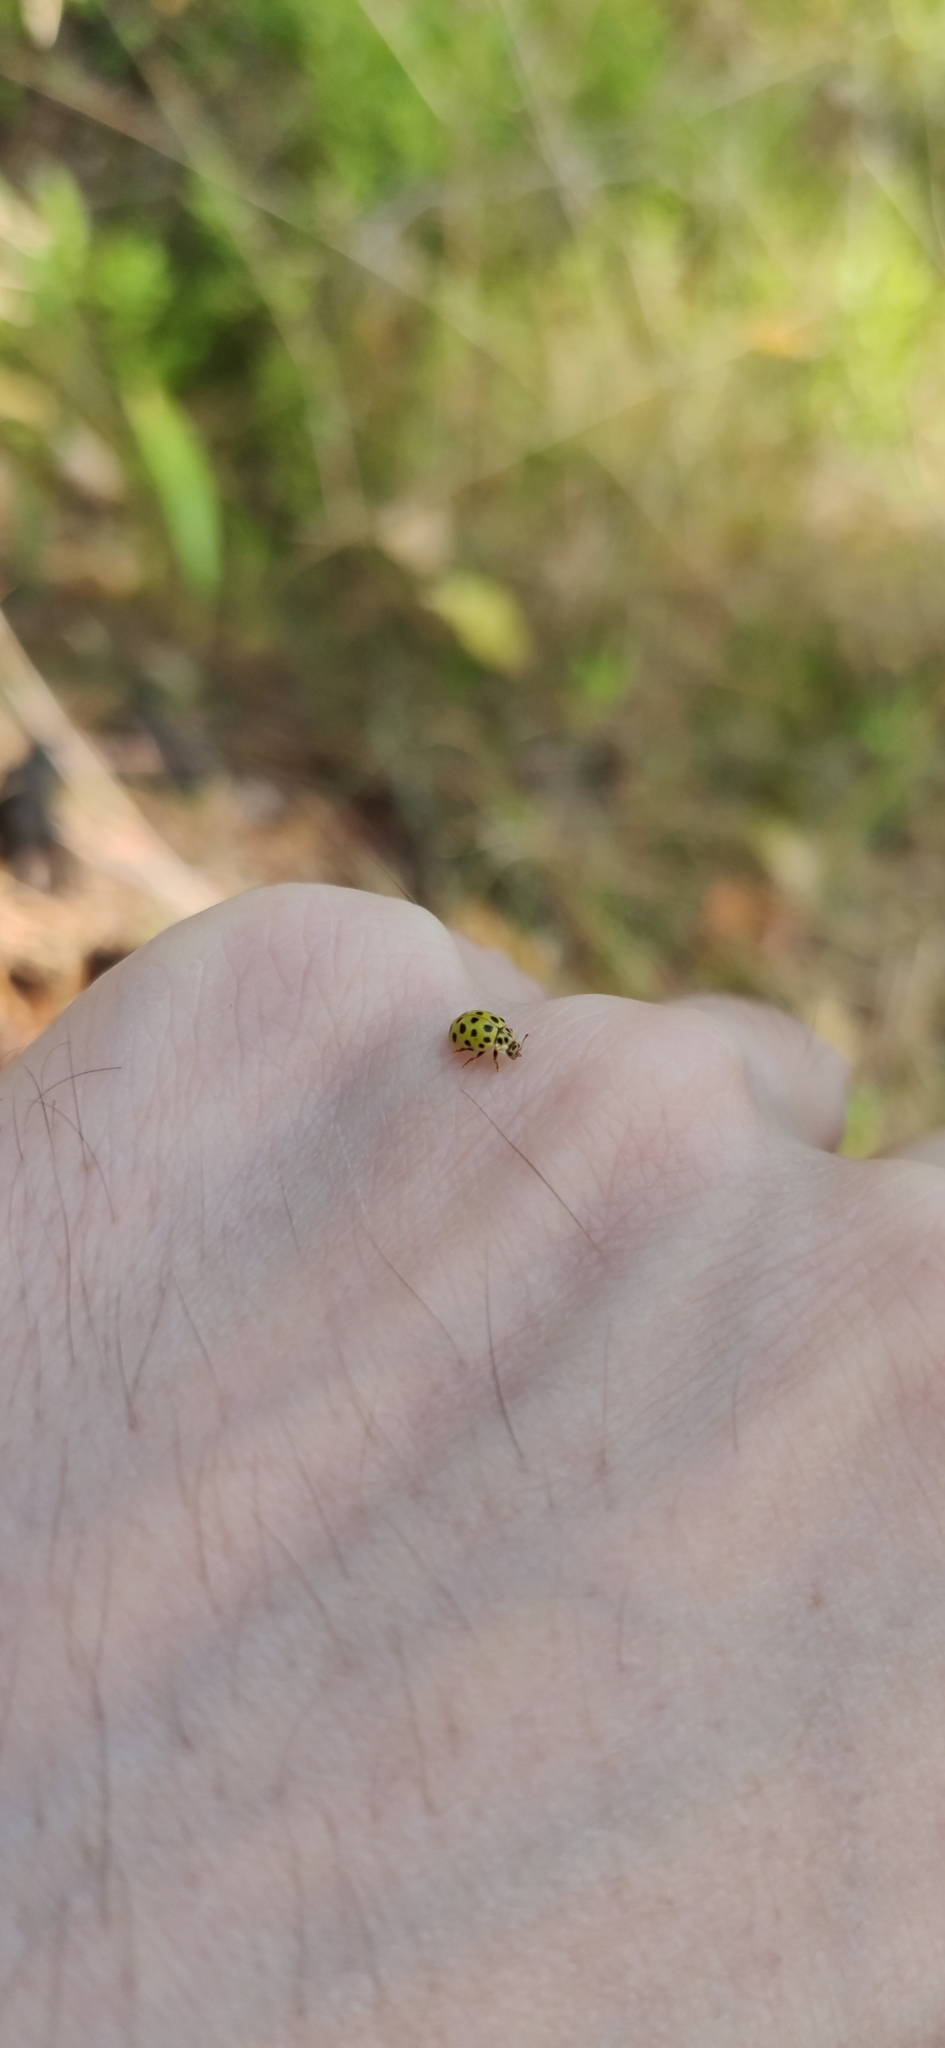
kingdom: Animalia
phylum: Arthropoda
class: Insecta
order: Coleoptera
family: Coccinellidae
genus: Psyllobora
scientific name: Psyllobora vigintiduopunctata
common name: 22-spot ladybird
